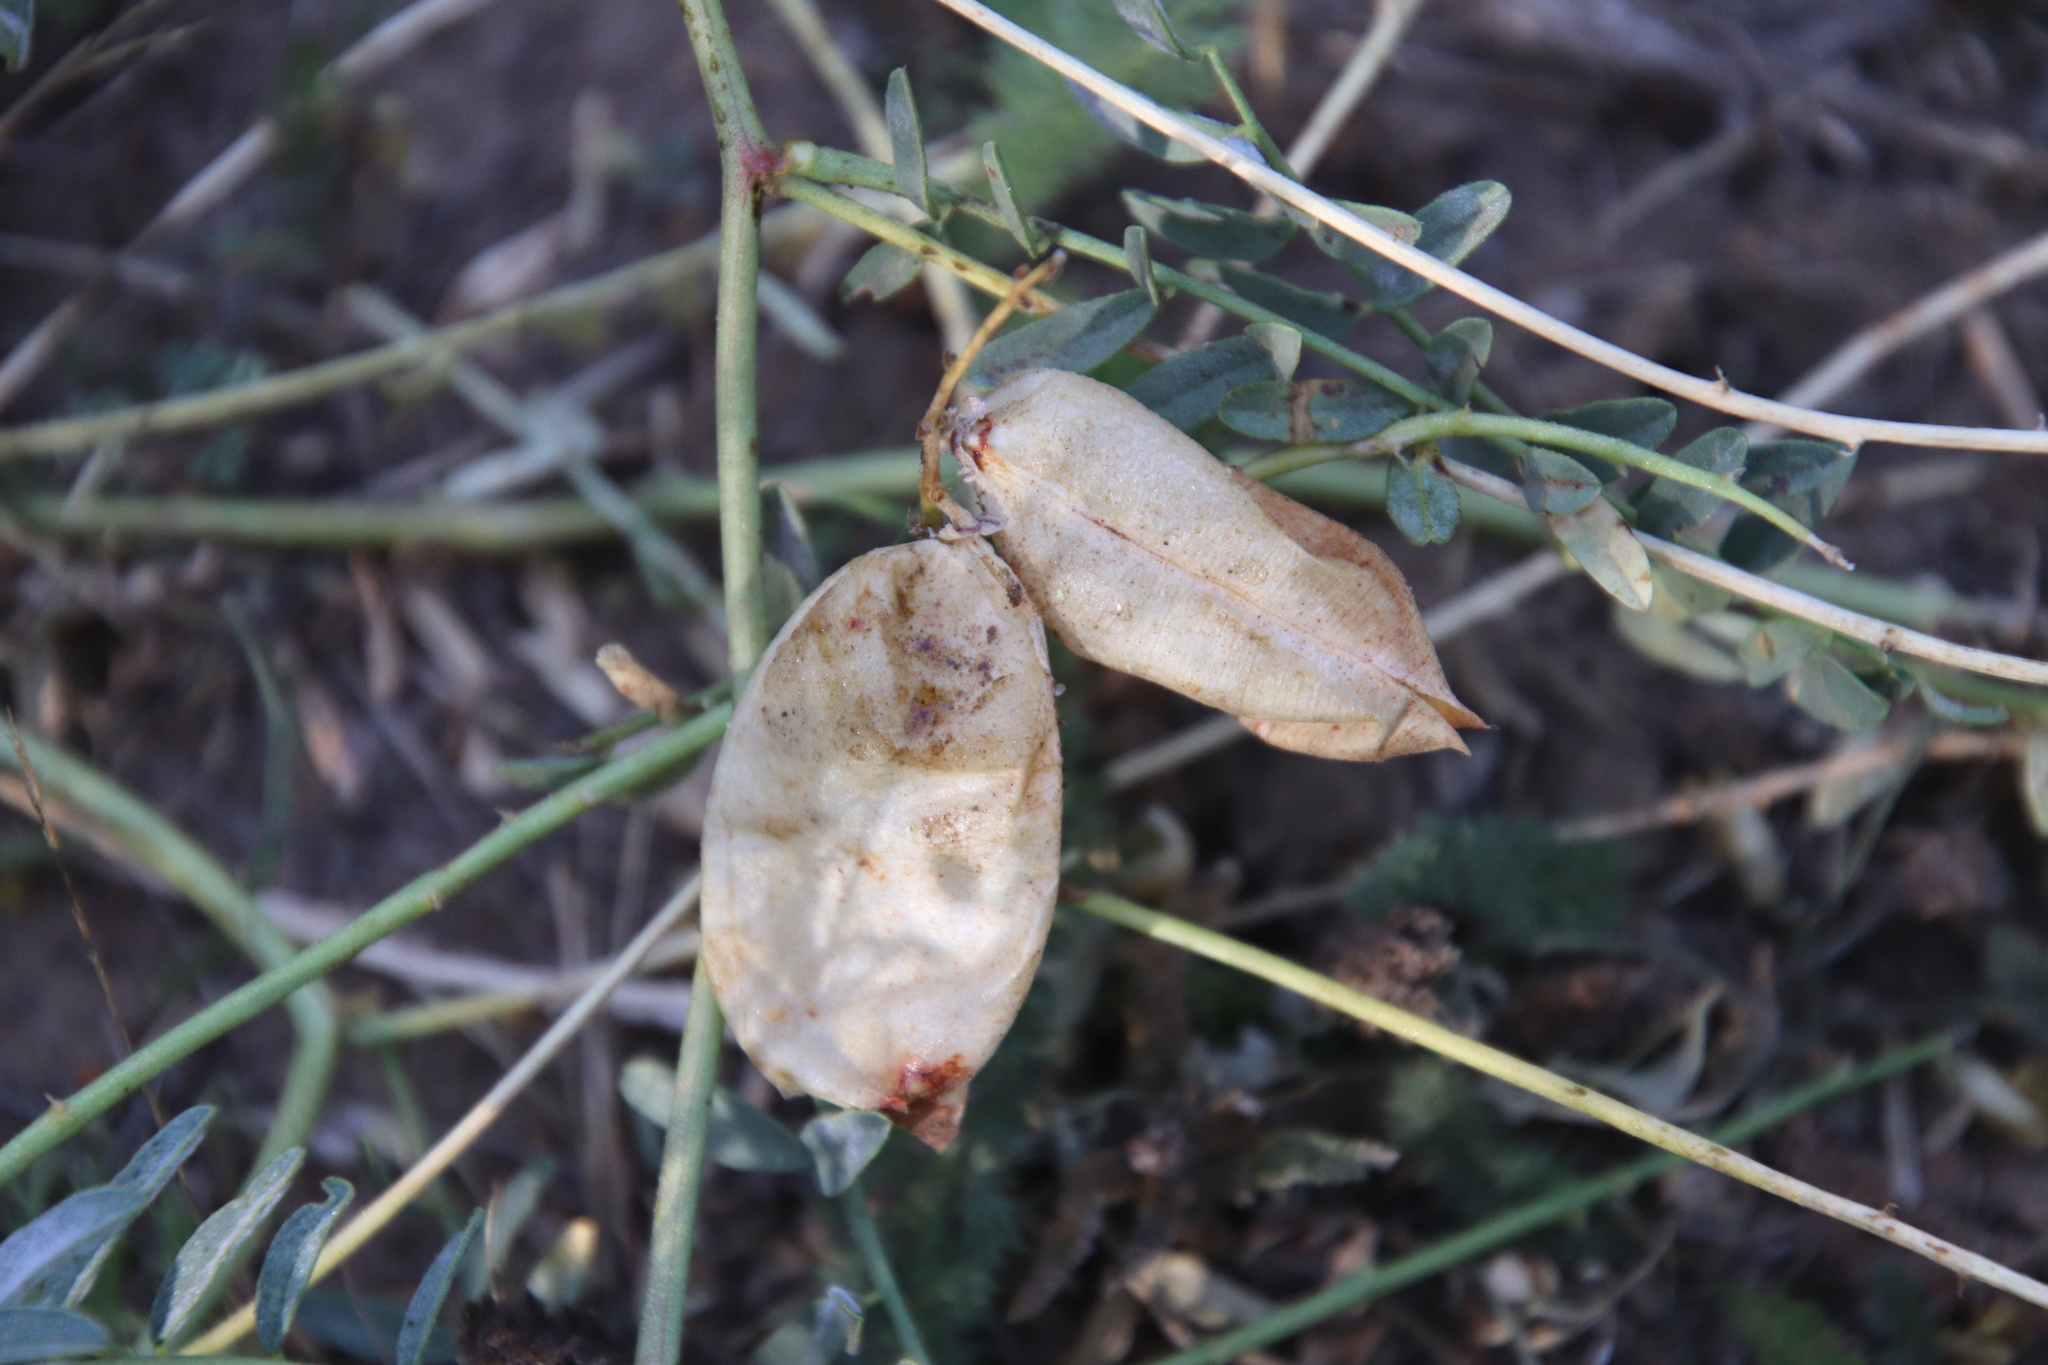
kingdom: Plantae
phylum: Tracheophyta
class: Magnoliopsida
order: Fabales
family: Fabaceae
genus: Astragalus
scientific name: Astragalus douglasii
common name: Jacumba milkvetch
